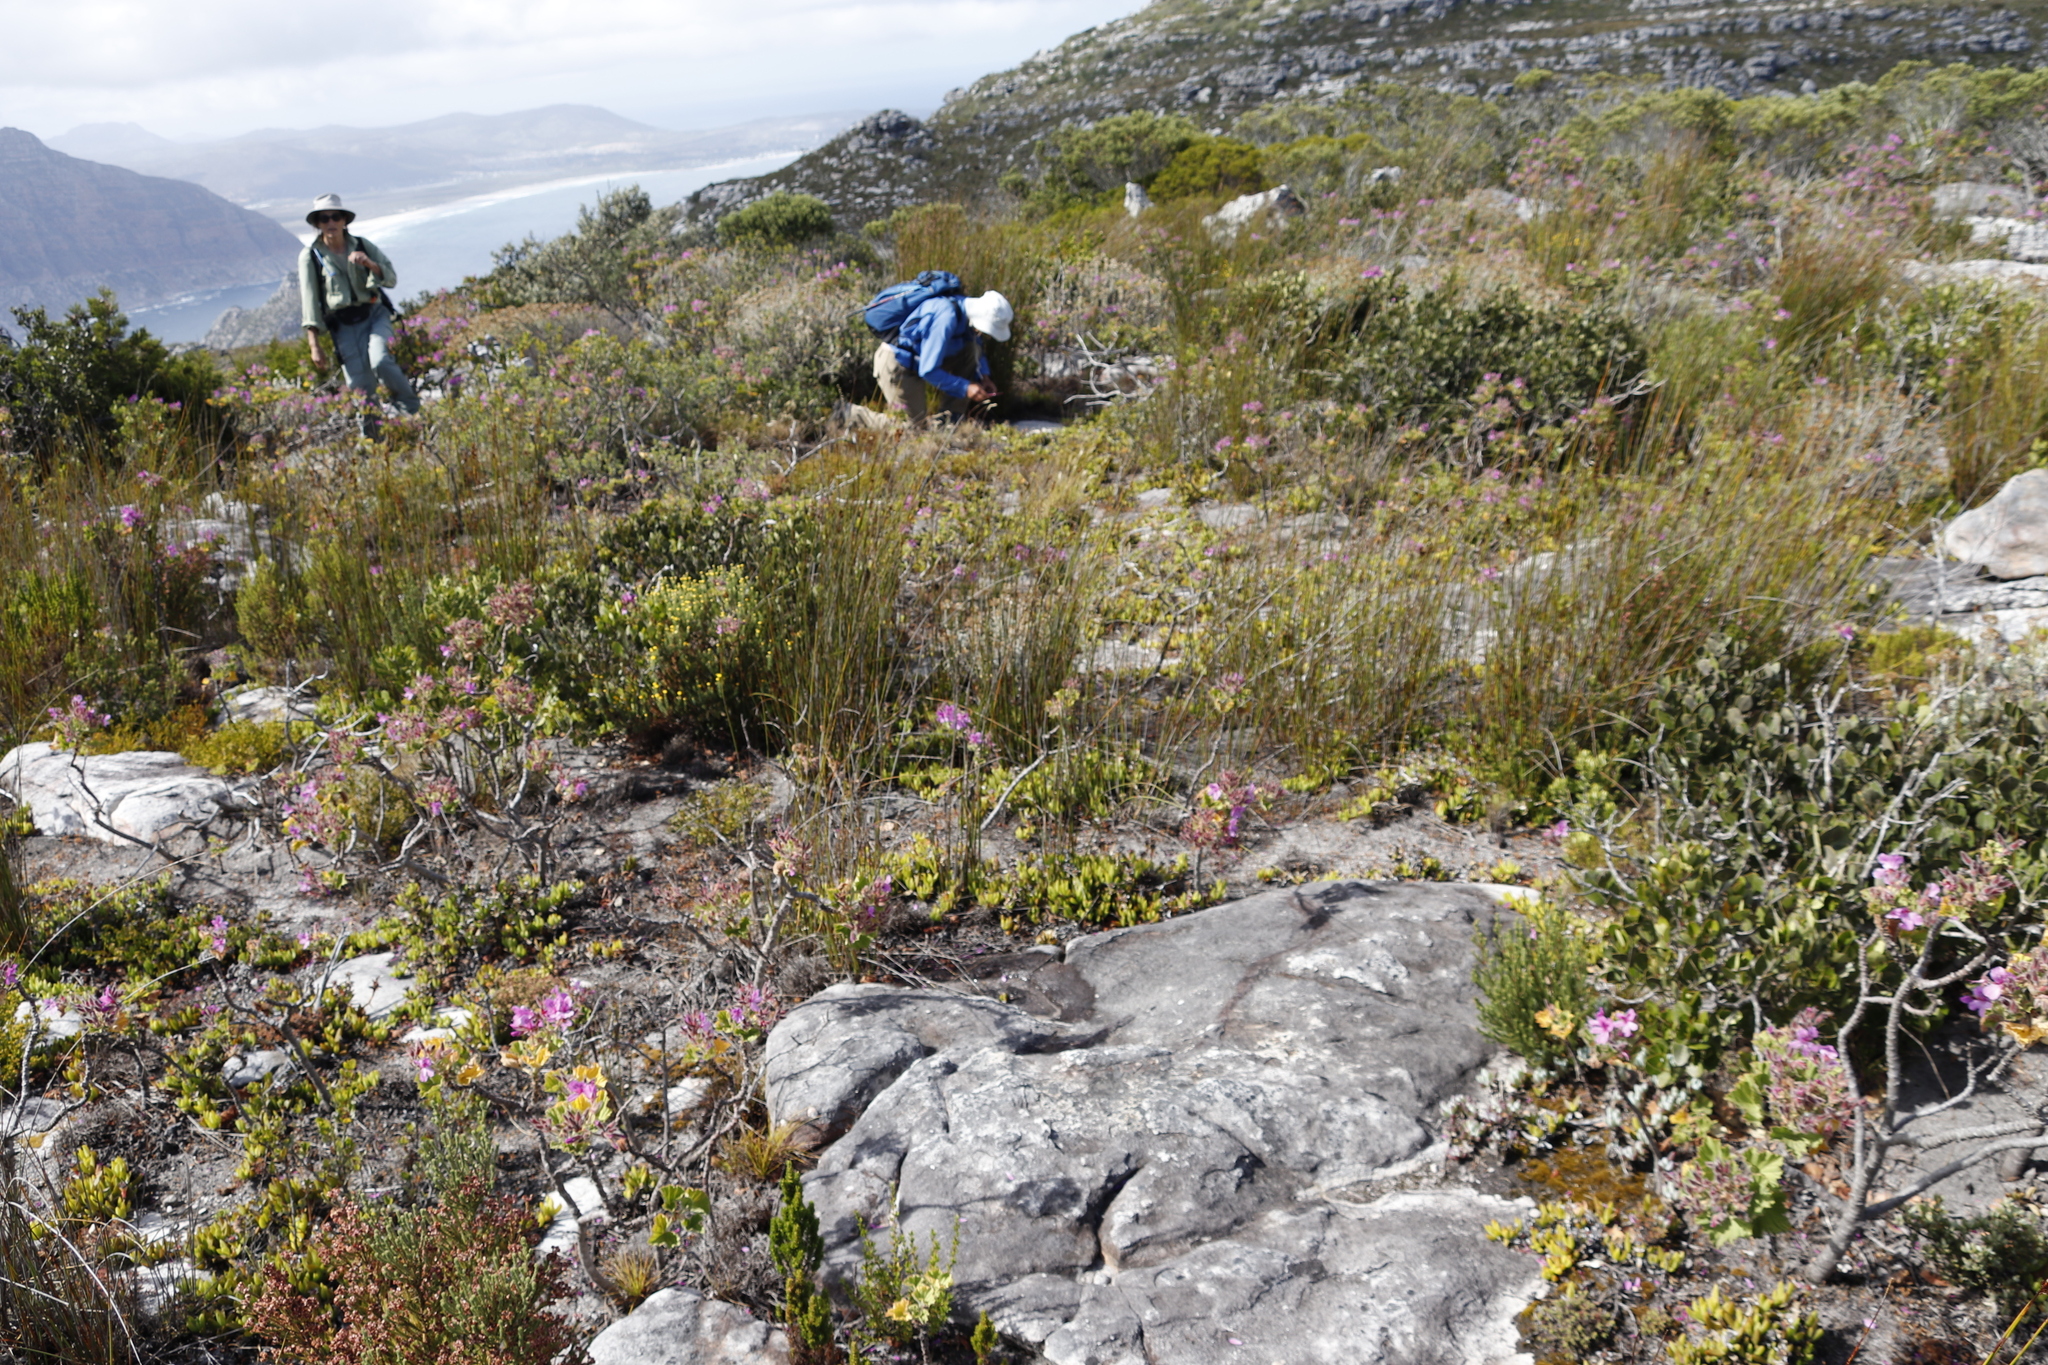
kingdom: Plantae
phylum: Tracheophyta
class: Magnoliopsida
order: Caryophyllales
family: Aizoaceae
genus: Ruschia
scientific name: Ruschia rubricaulis
